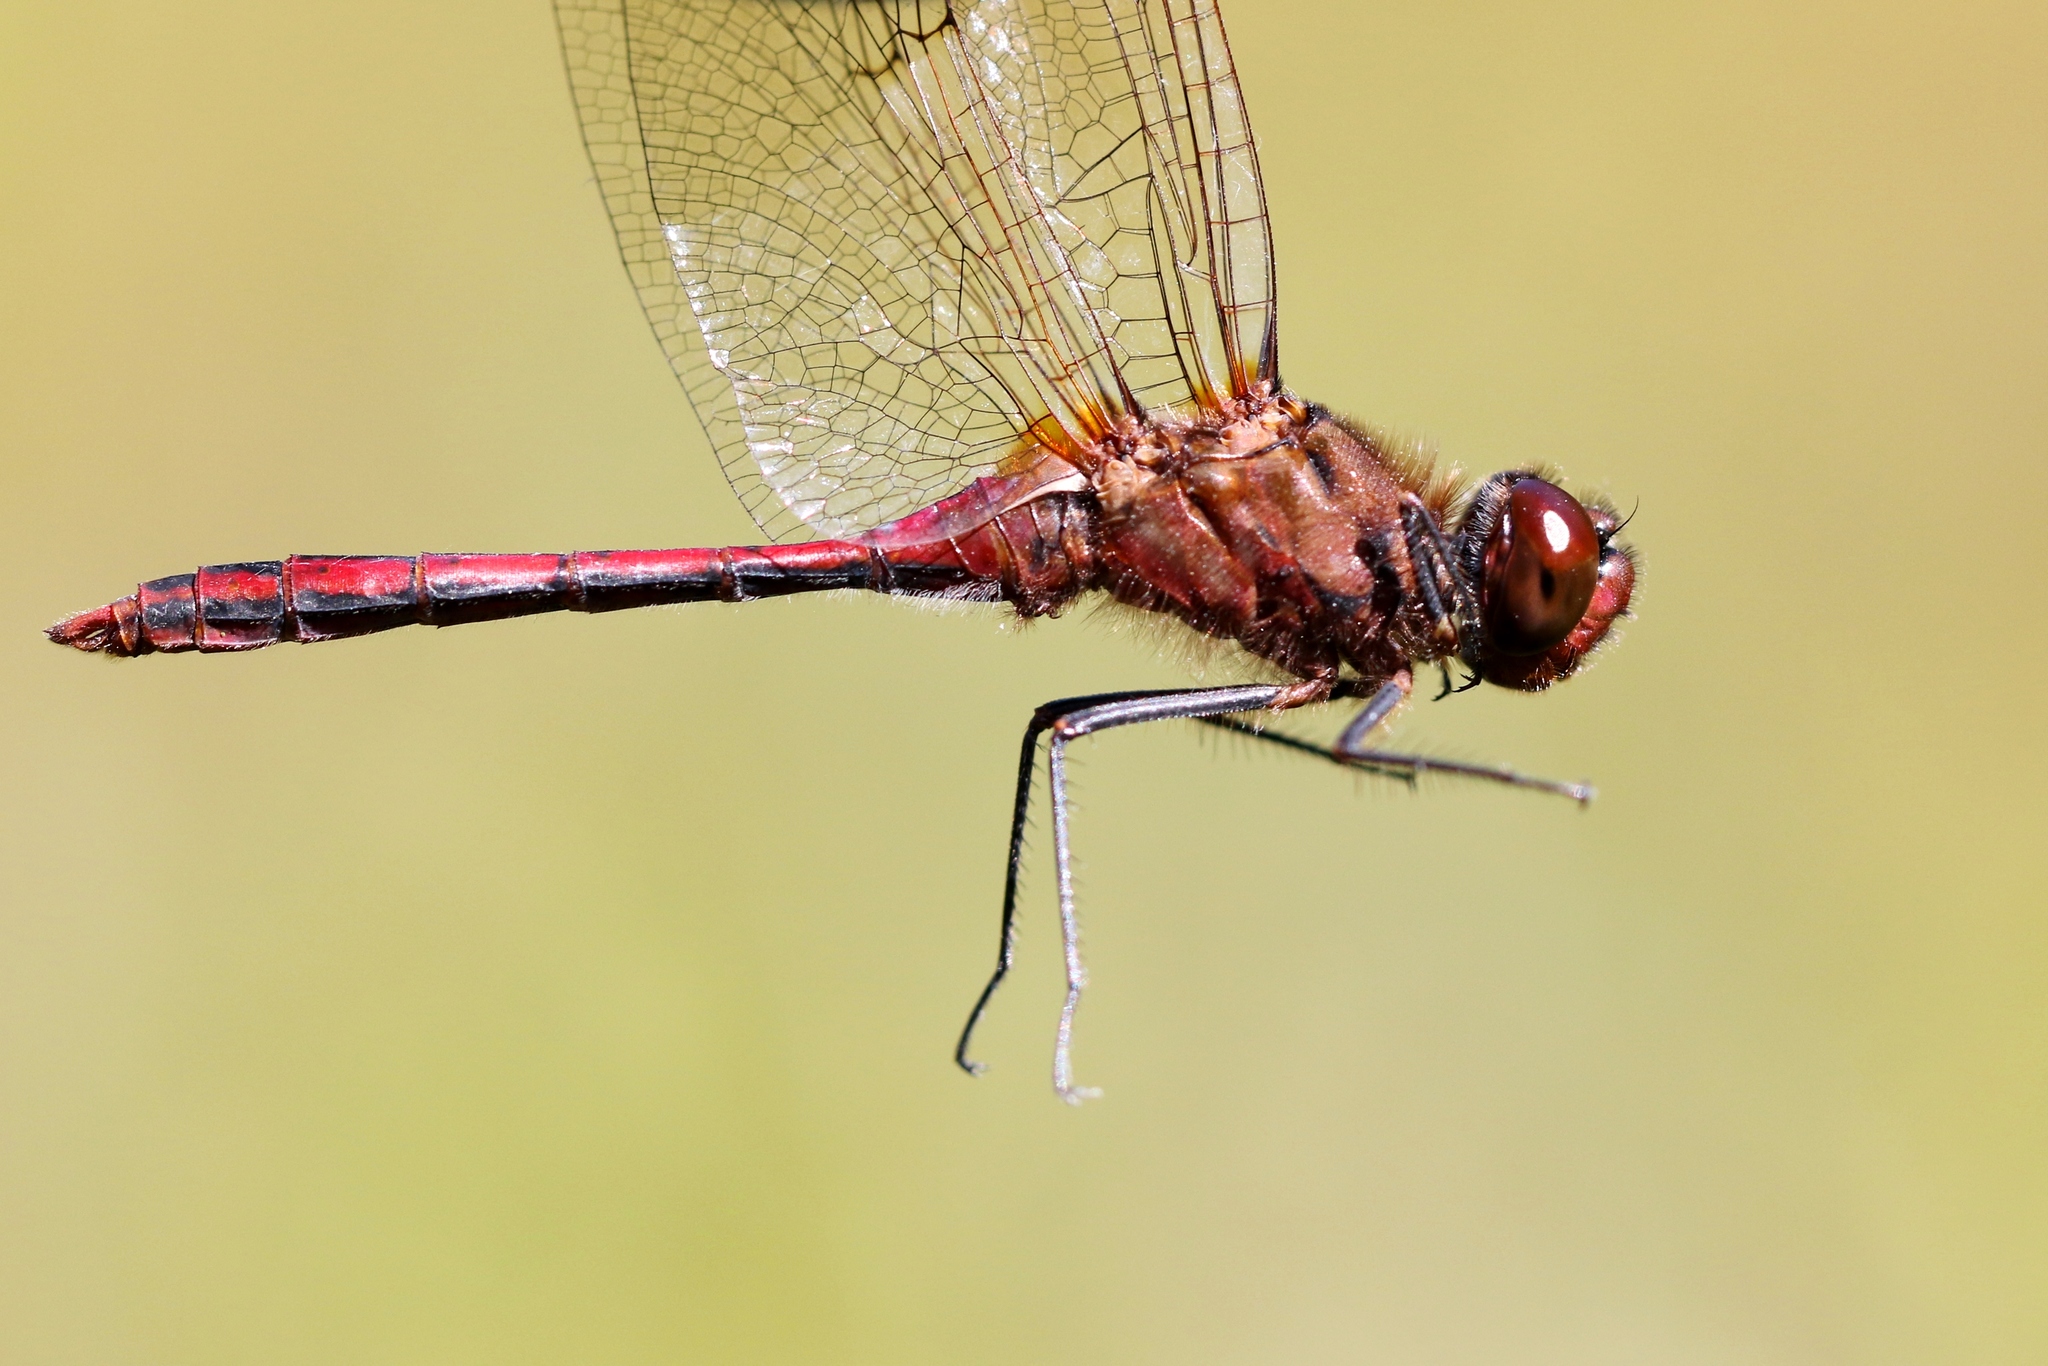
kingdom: Animalia
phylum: Arthropoda
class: Insecta
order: Odonata
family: Libellulidae
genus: Sympetrum
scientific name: Sympetrum costiferum
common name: Saffron-winged meadowhawk
